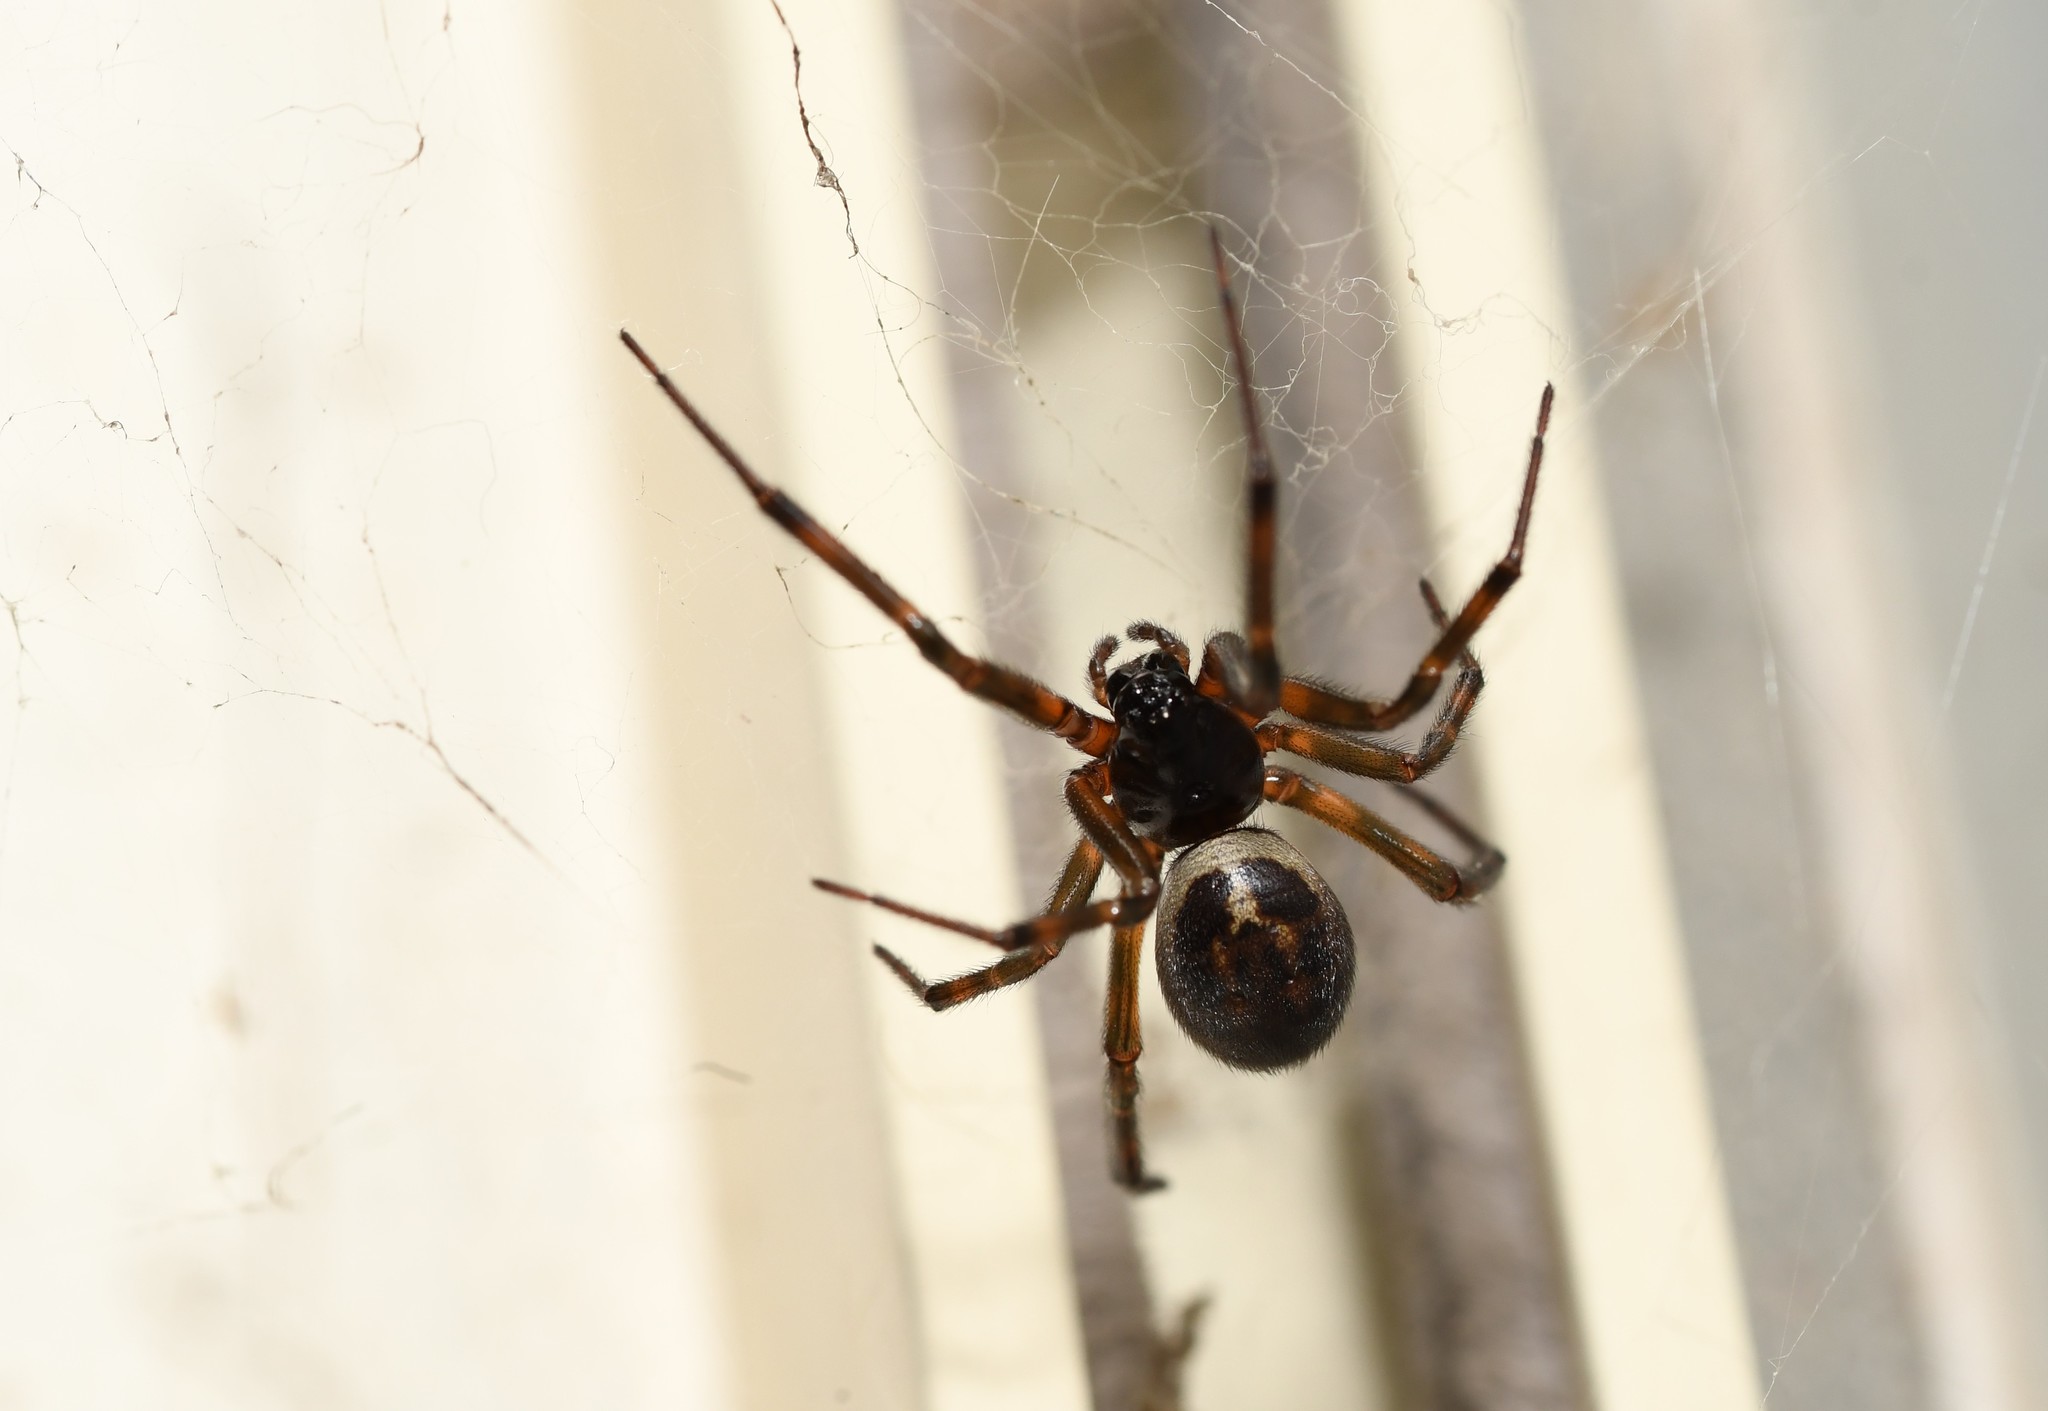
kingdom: Animalia
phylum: Arthropoda
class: Arachnida
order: Araneae
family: Theridiidae
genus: Steatoda
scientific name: Steatoda nobilis
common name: Cobweb weaver
